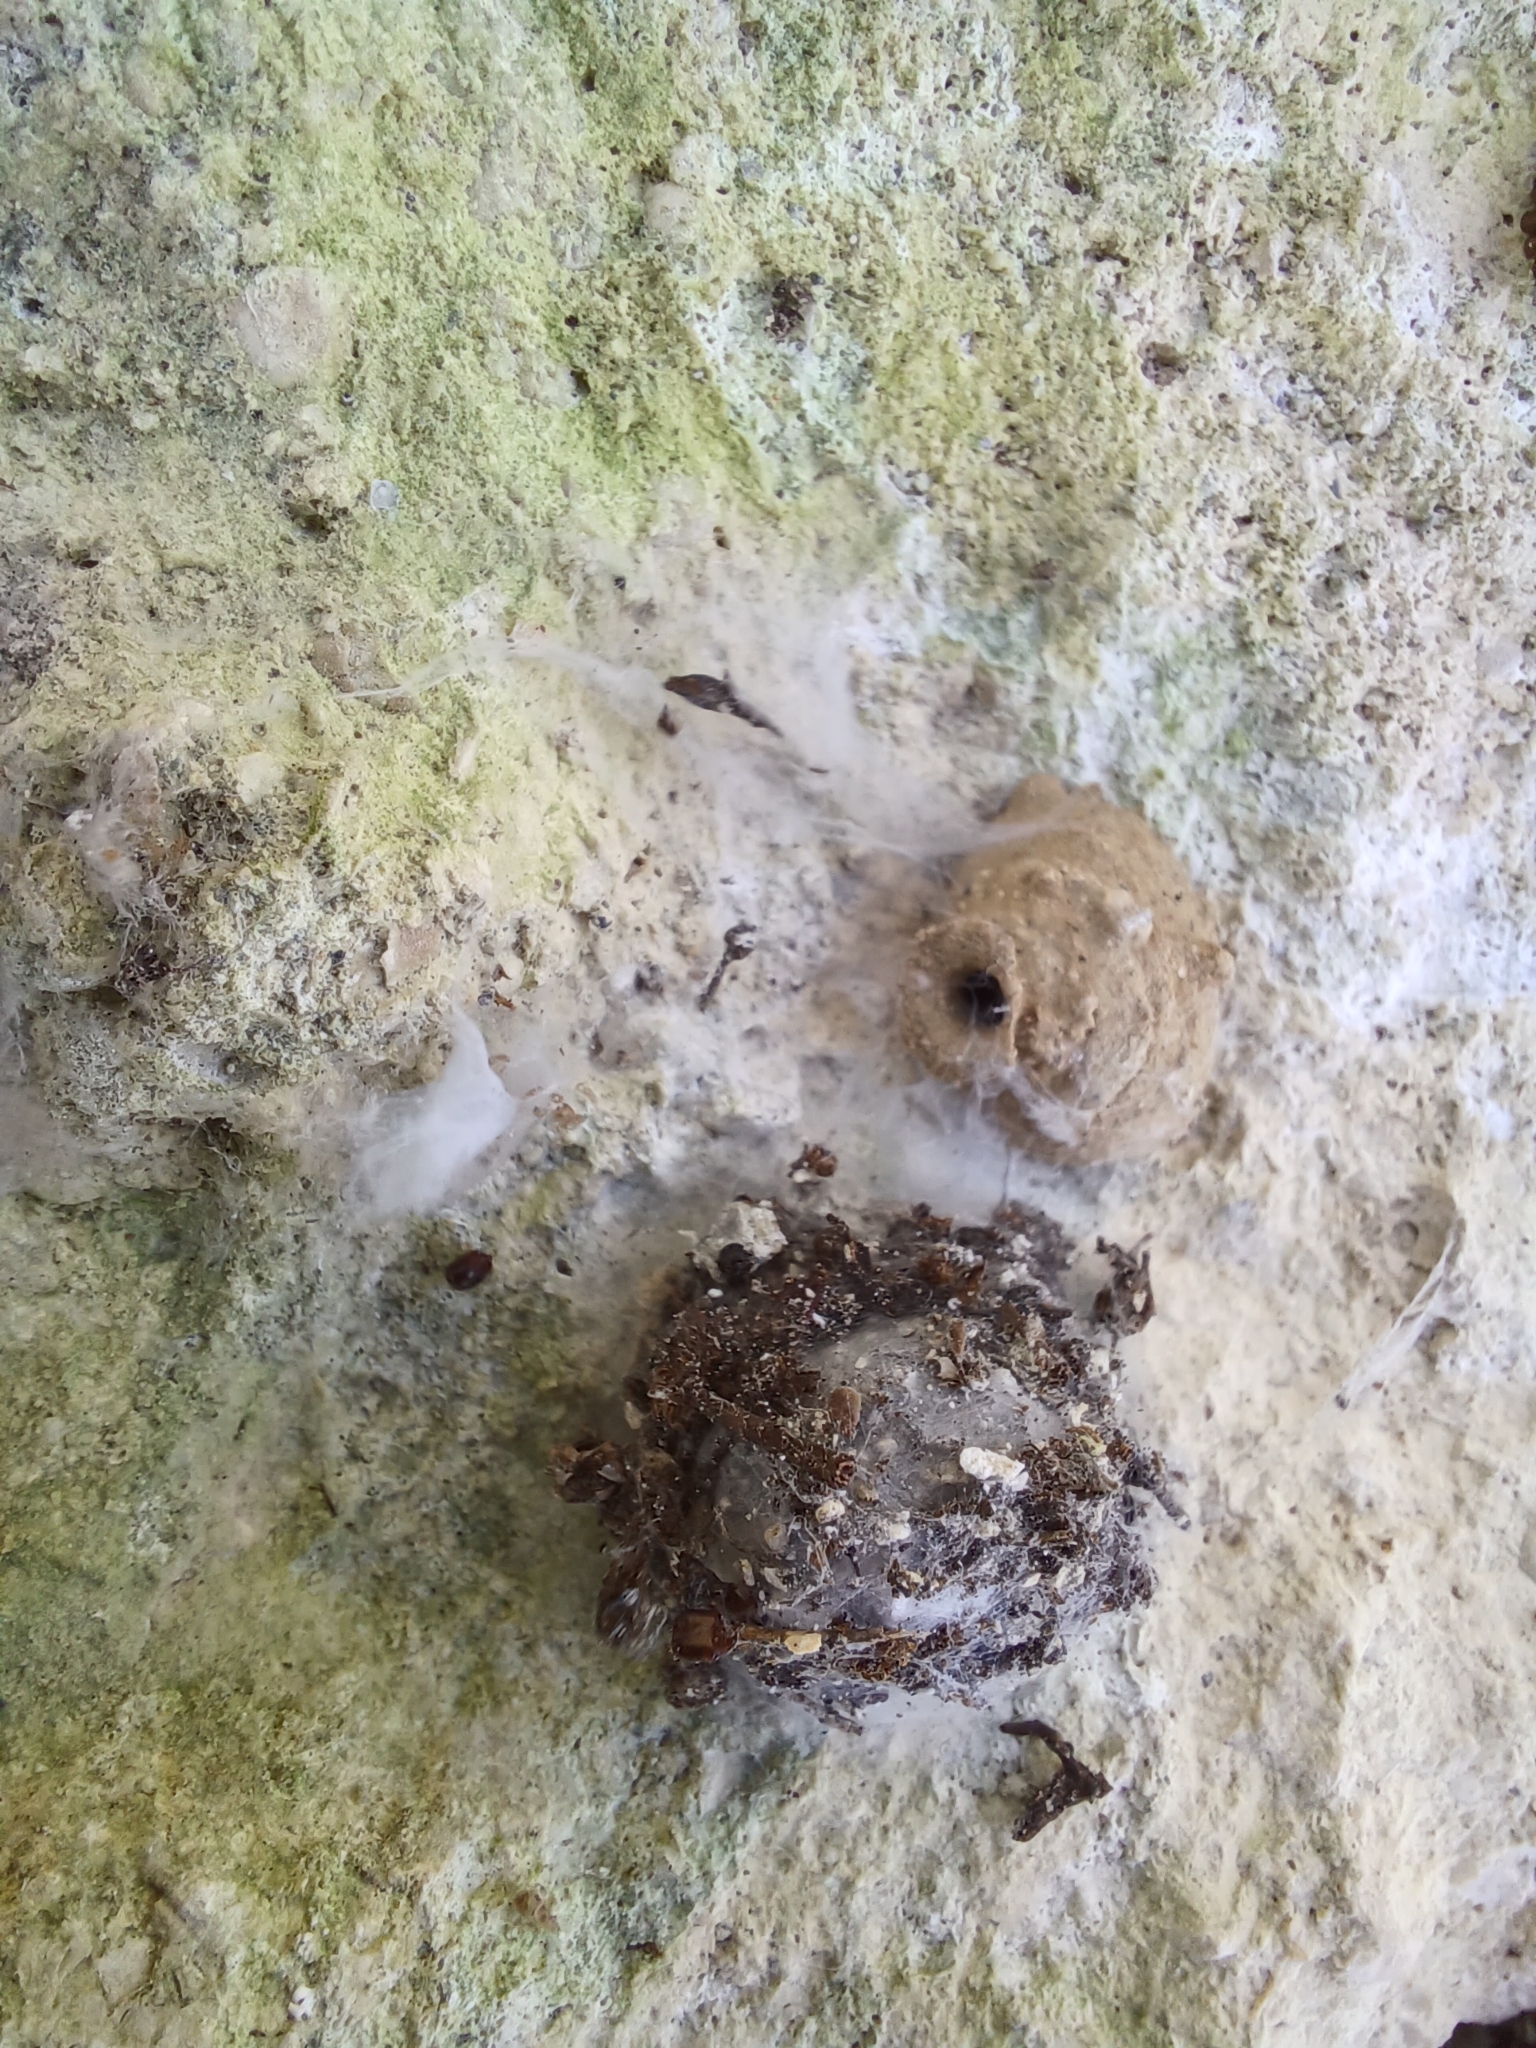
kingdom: Animalia
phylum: Arthropoda
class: Insecta
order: Hymenoptera
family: Vespidae
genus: Eumenes
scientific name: Eumenes
